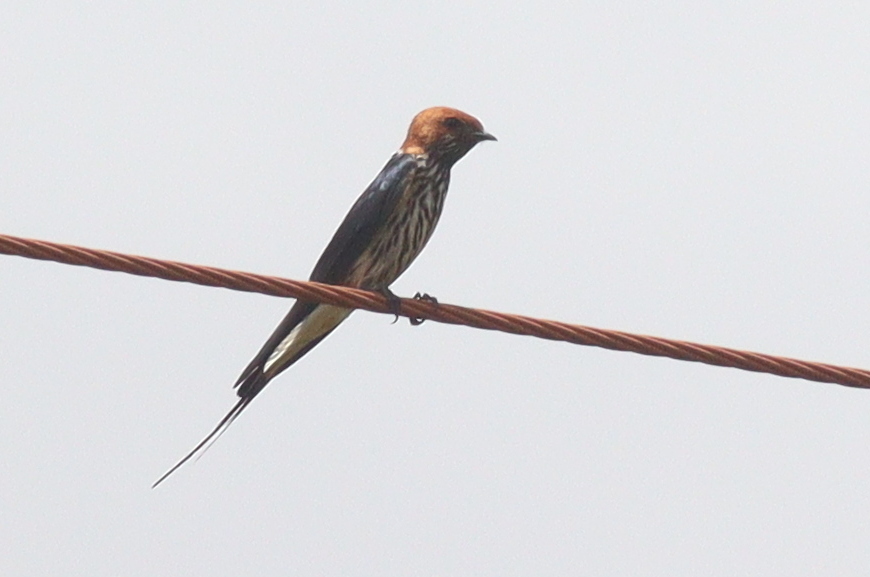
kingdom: Animalia
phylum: Chordata
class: Aves
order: Passeriformes
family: Hirundinidae
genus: Cecropis
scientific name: Cecropis abyssinica
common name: Lesser striped-swallow
